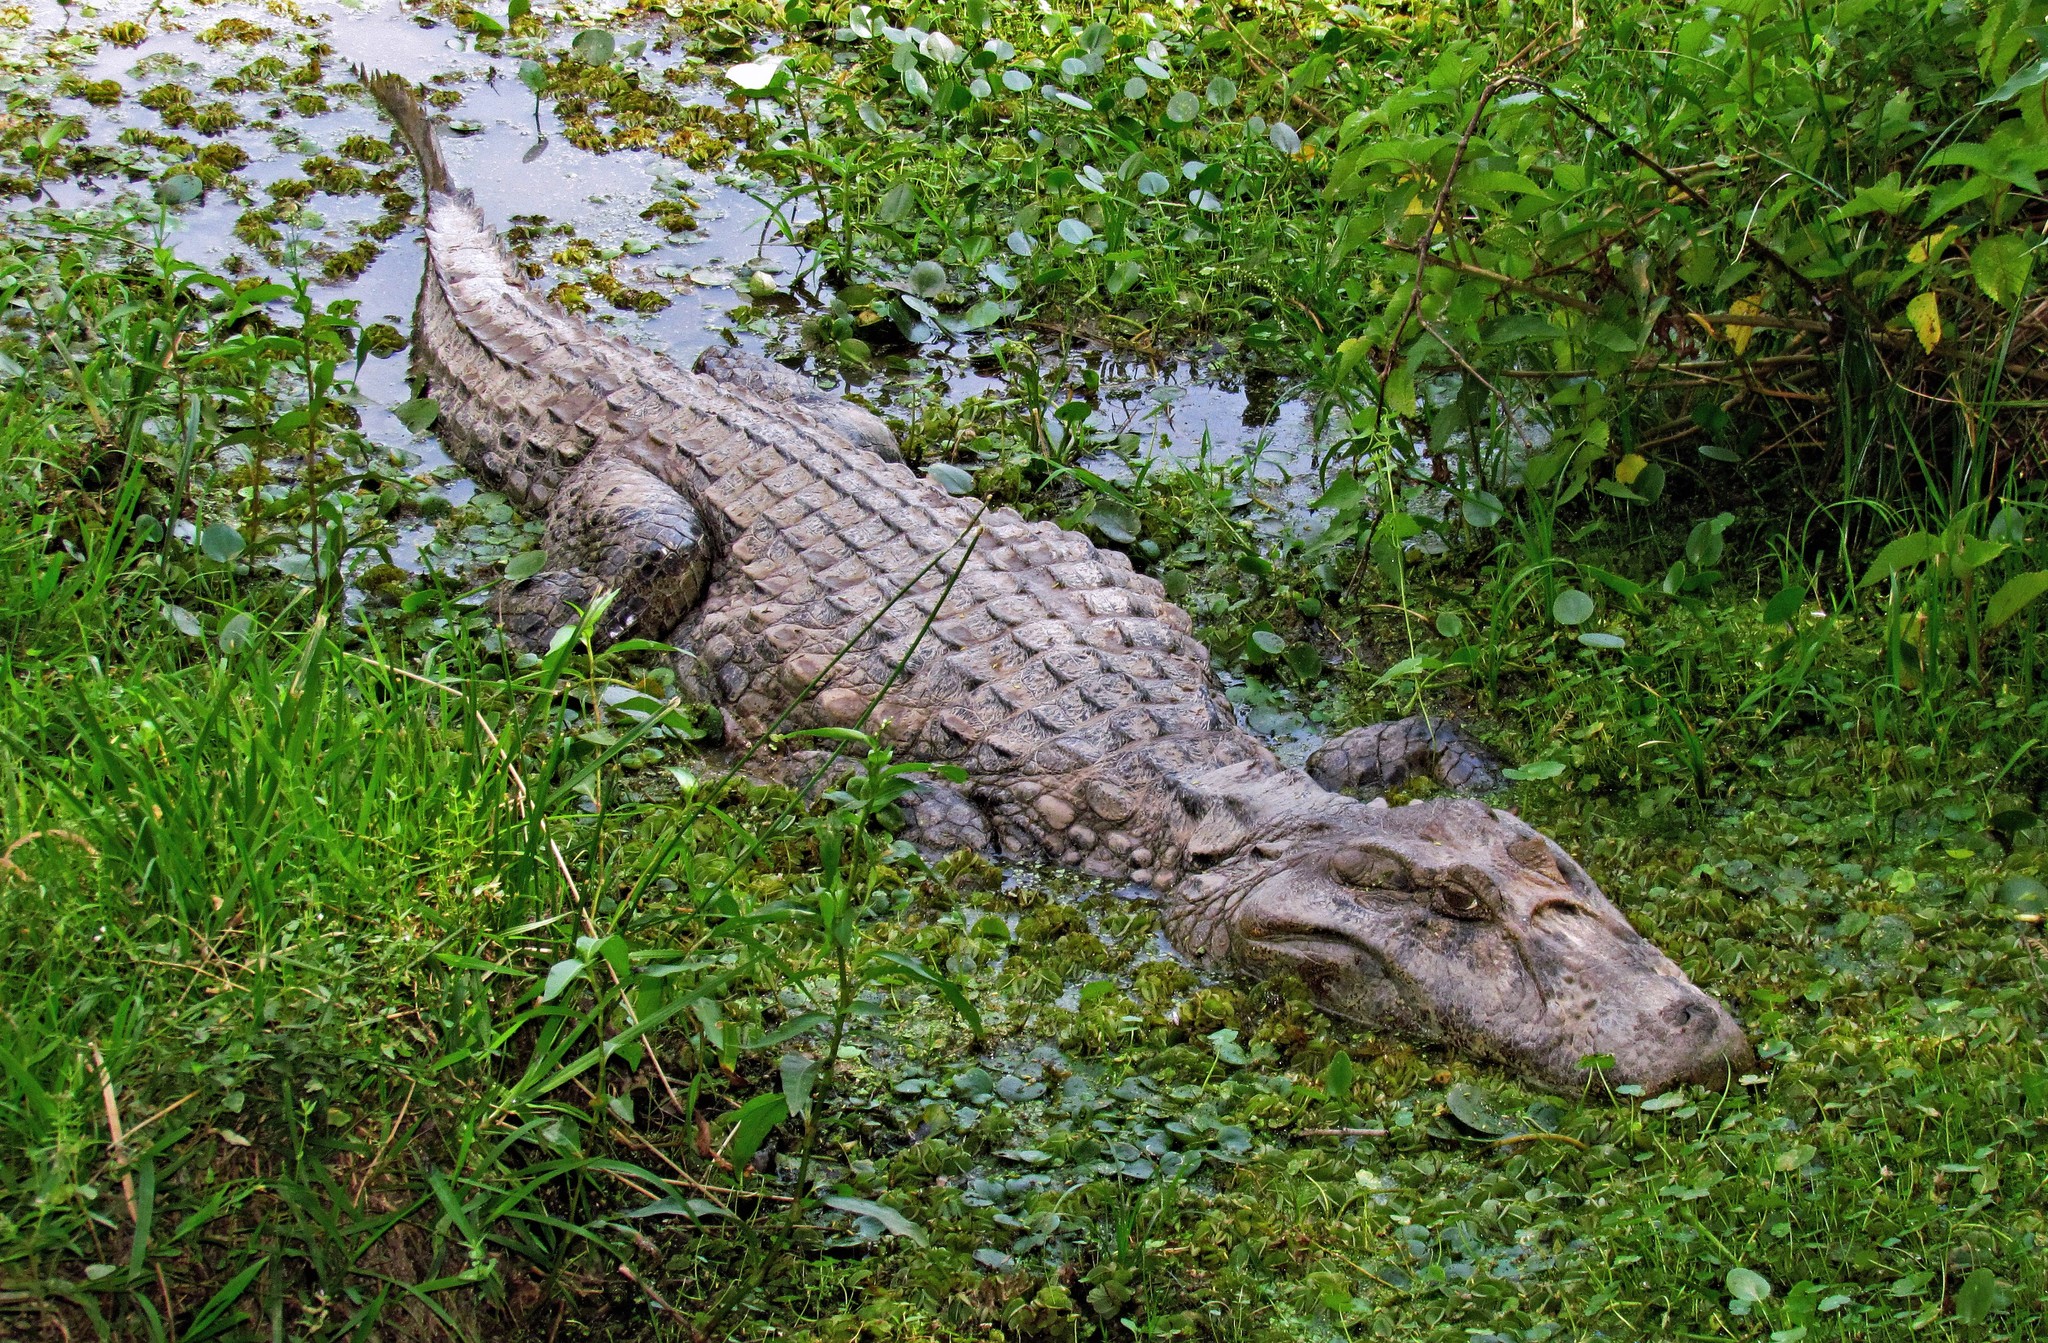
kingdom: Animalia
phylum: Chordata
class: Crocodylia
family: Alligatoridae
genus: Caiman
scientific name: Caiman latirostris
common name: Broad-snouted caiman
